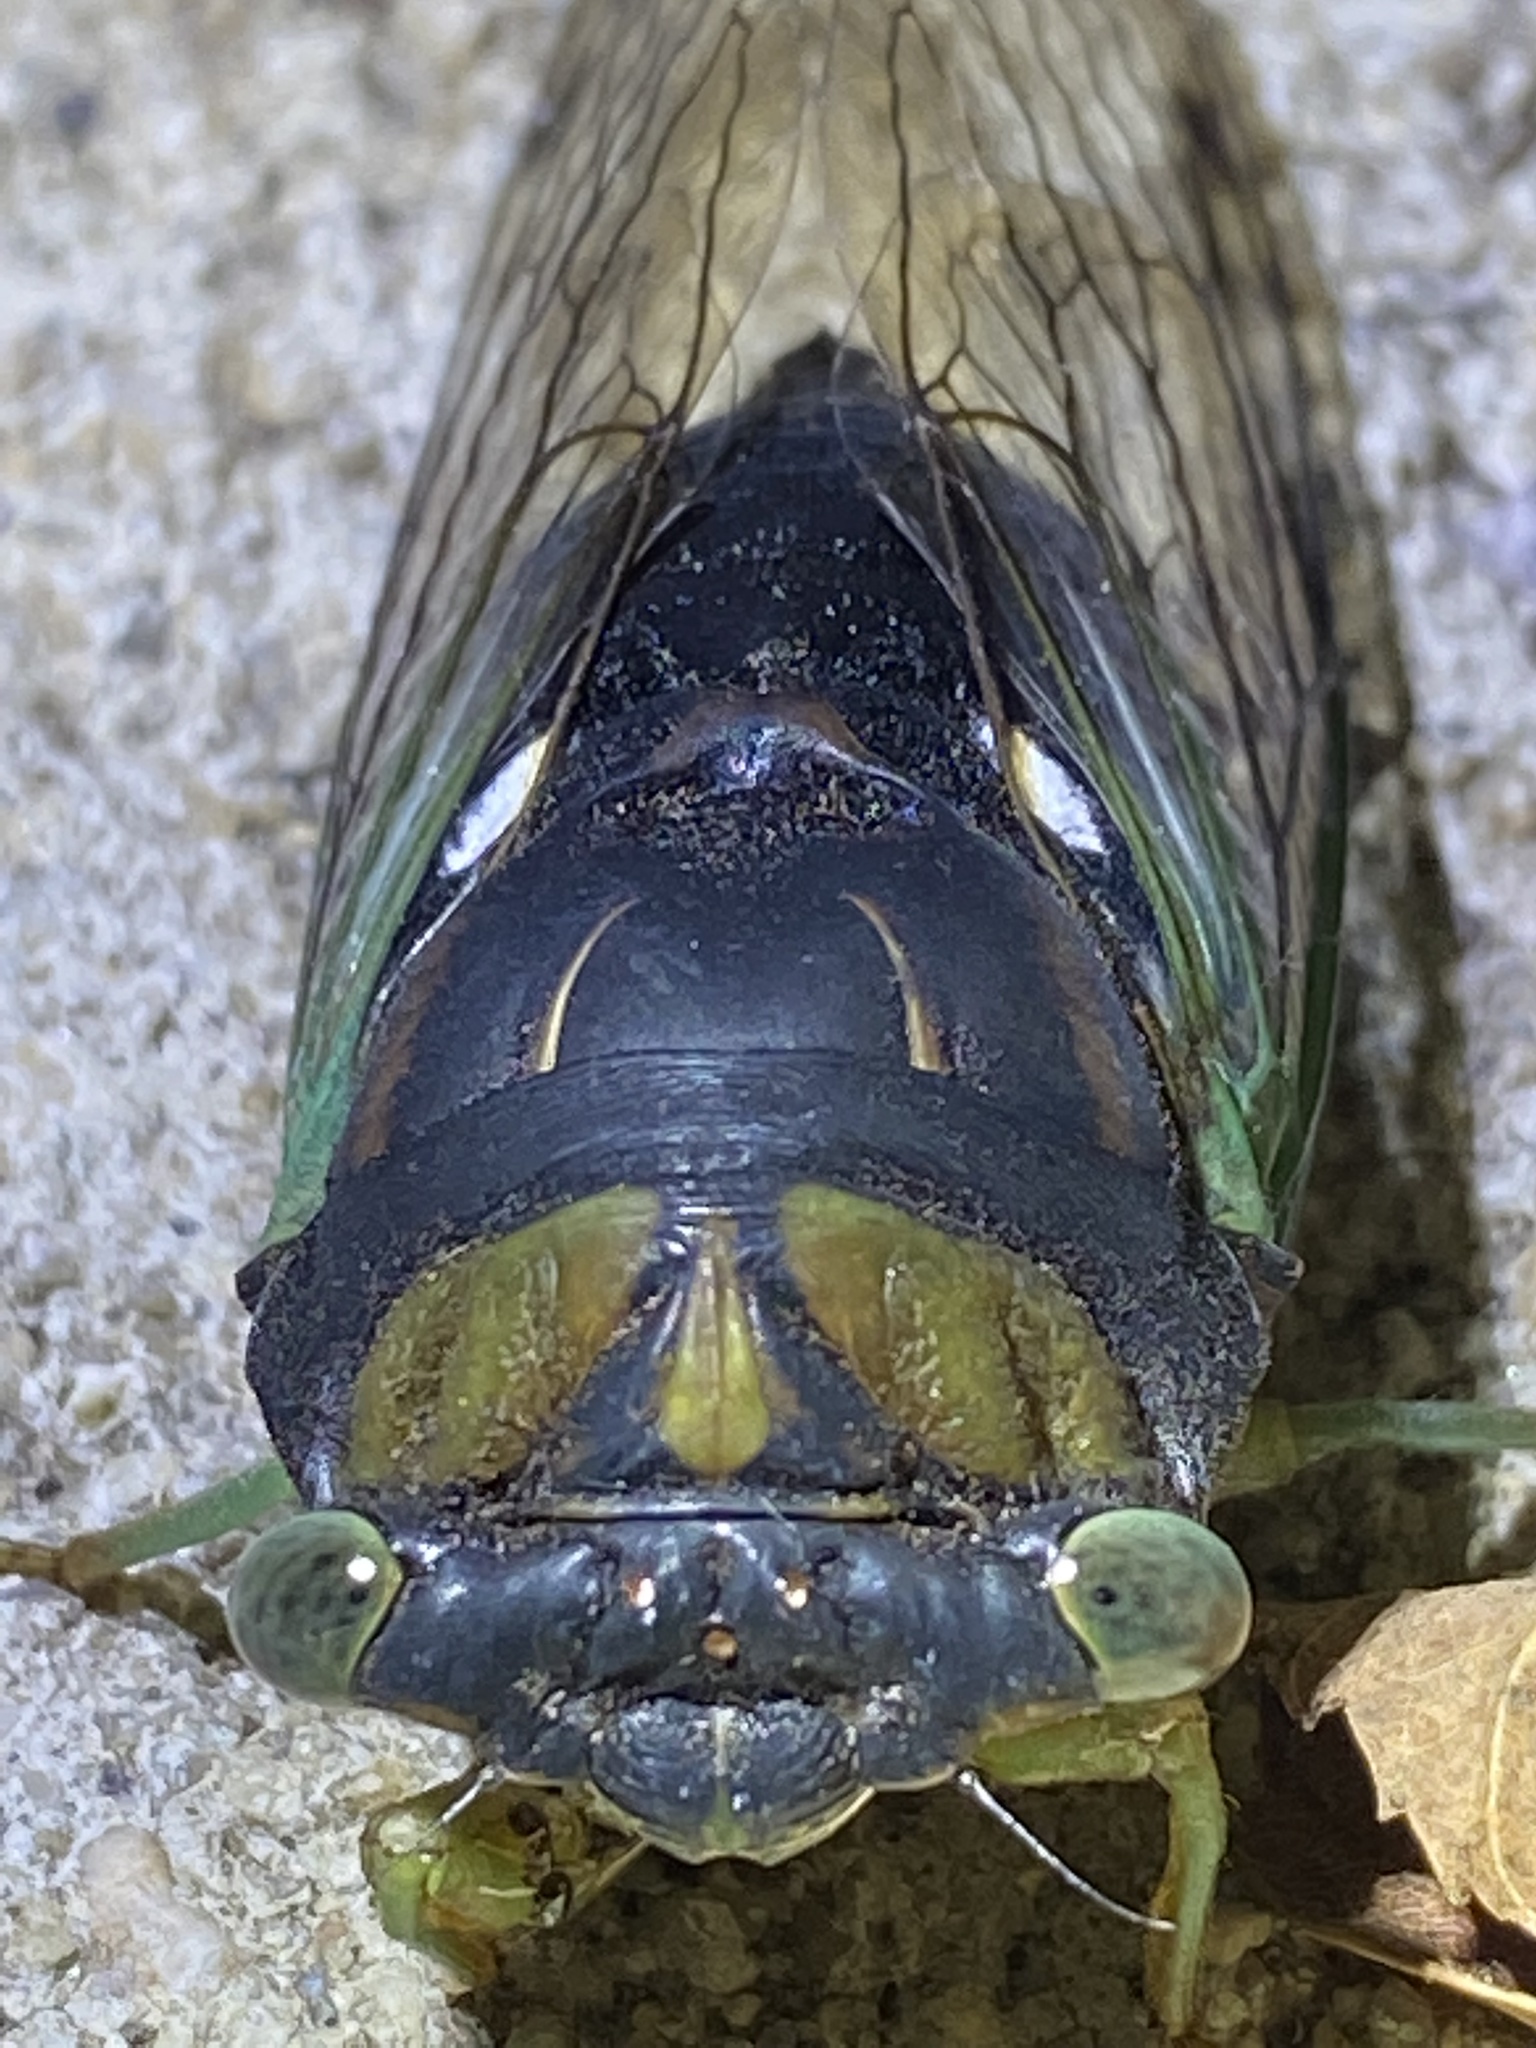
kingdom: Animalia
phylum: Arthropoda
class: Insecta
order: Hemiptera
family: Cicadidae
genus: Neotibicen
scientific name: Neotibicen tibicen
